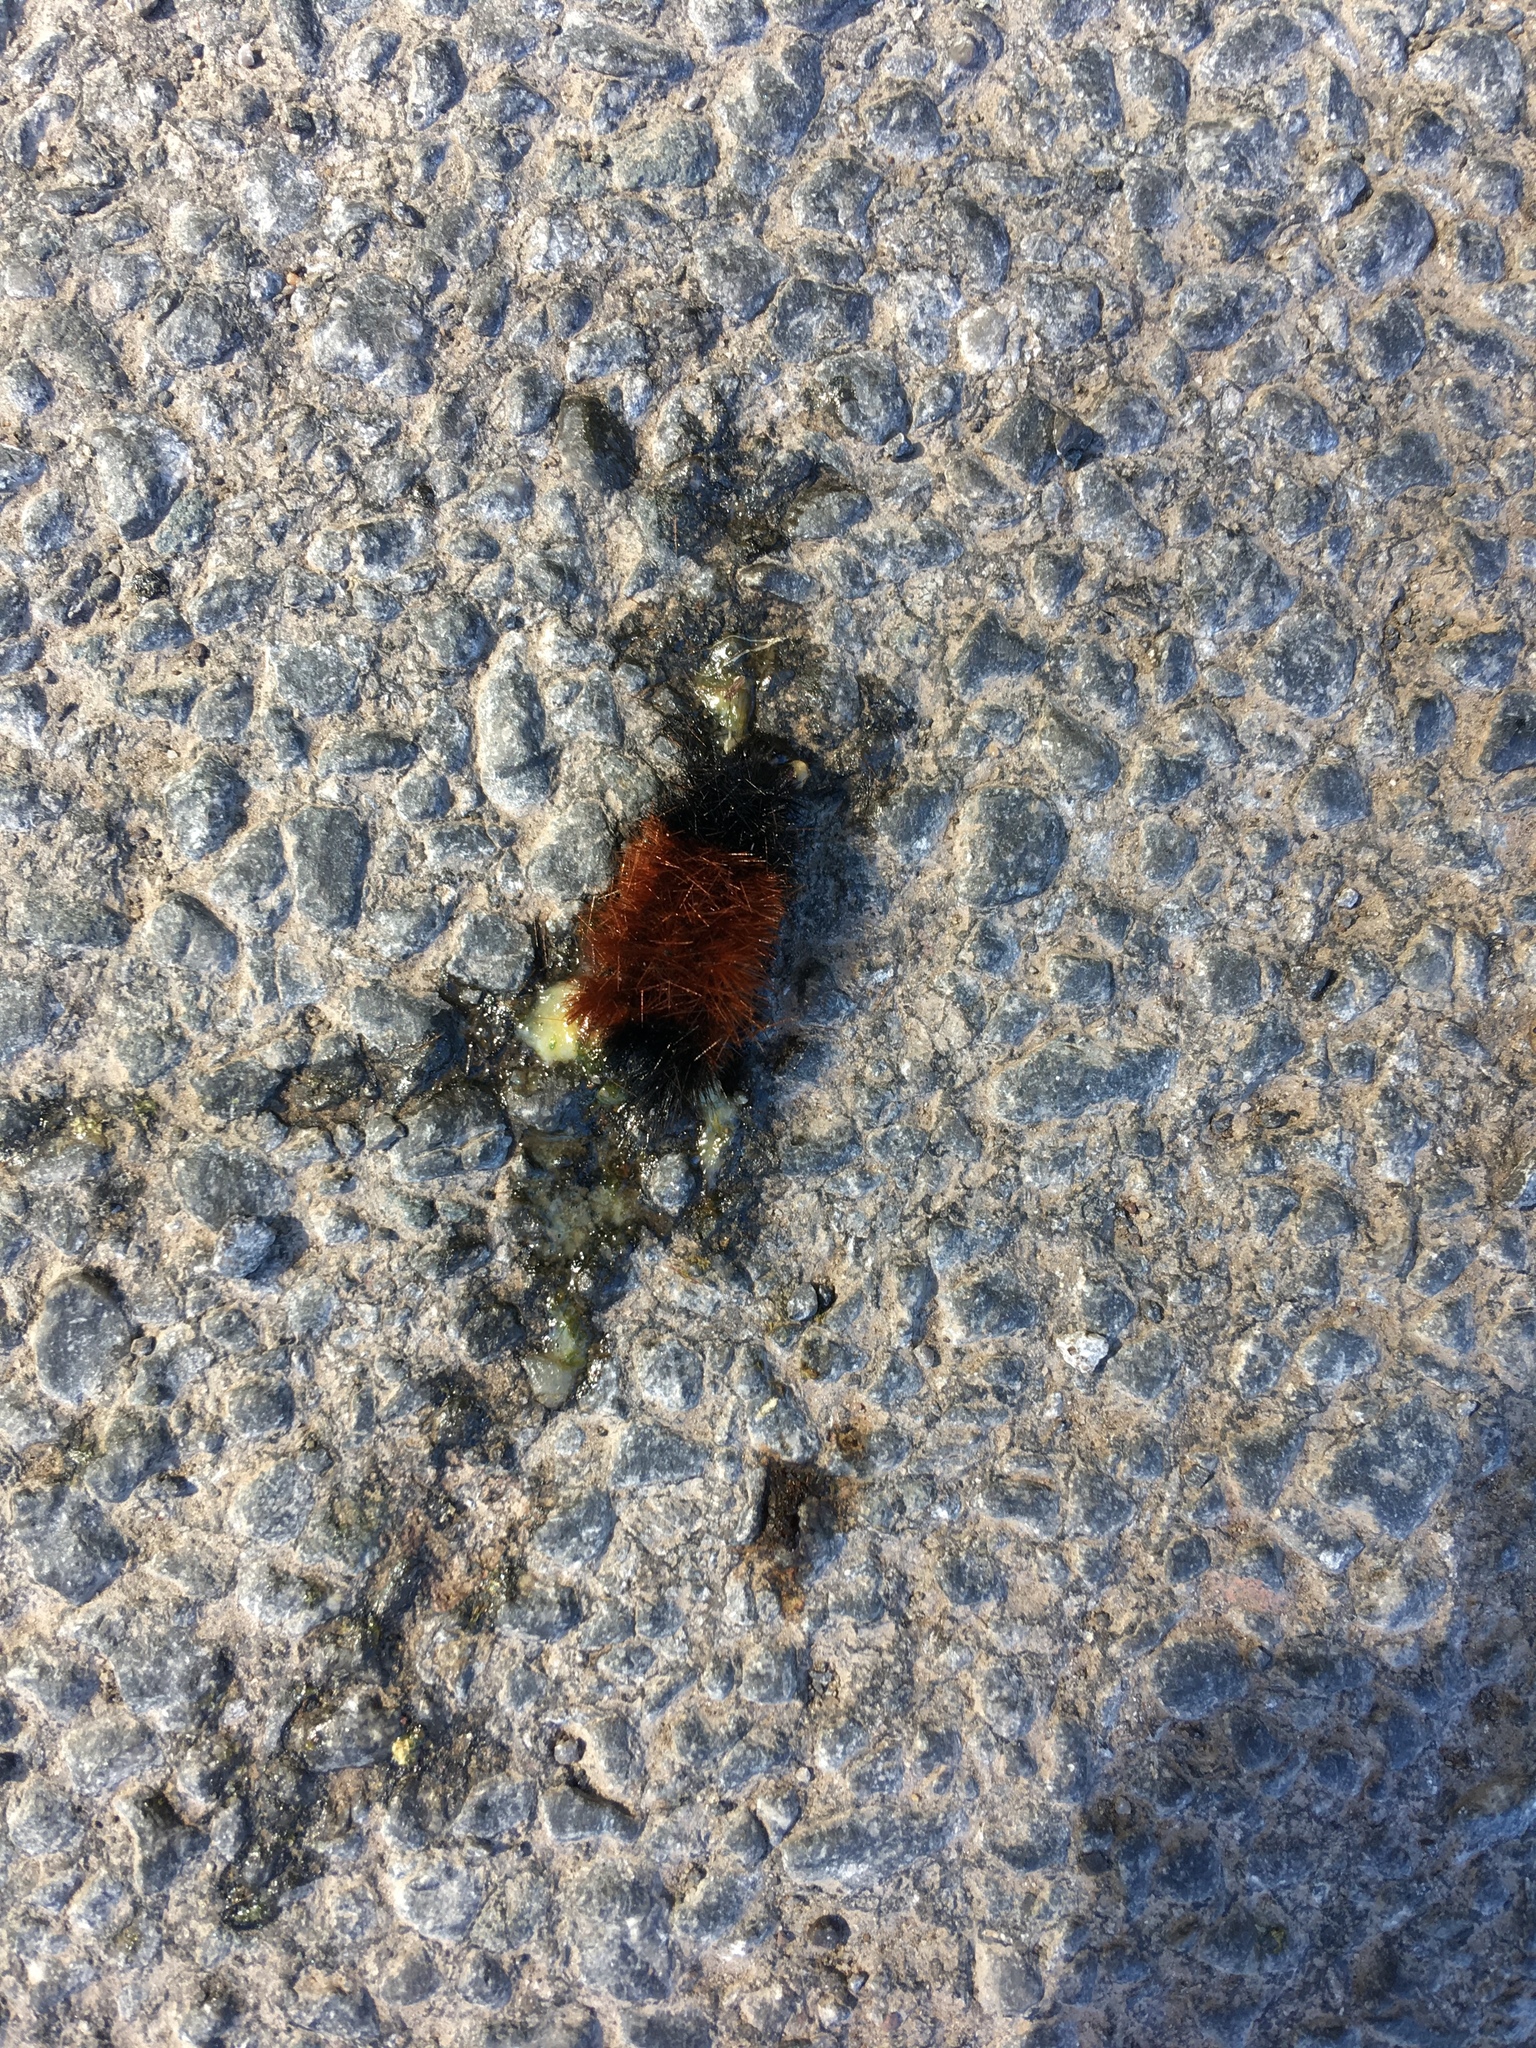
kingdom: Animalia
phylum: Arthropoda
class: Insecta
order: Lepidoptera
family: Erebidae
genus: Pyrrharctia
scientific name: Pyrrharctia isabella
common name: Isabella tiger moth
